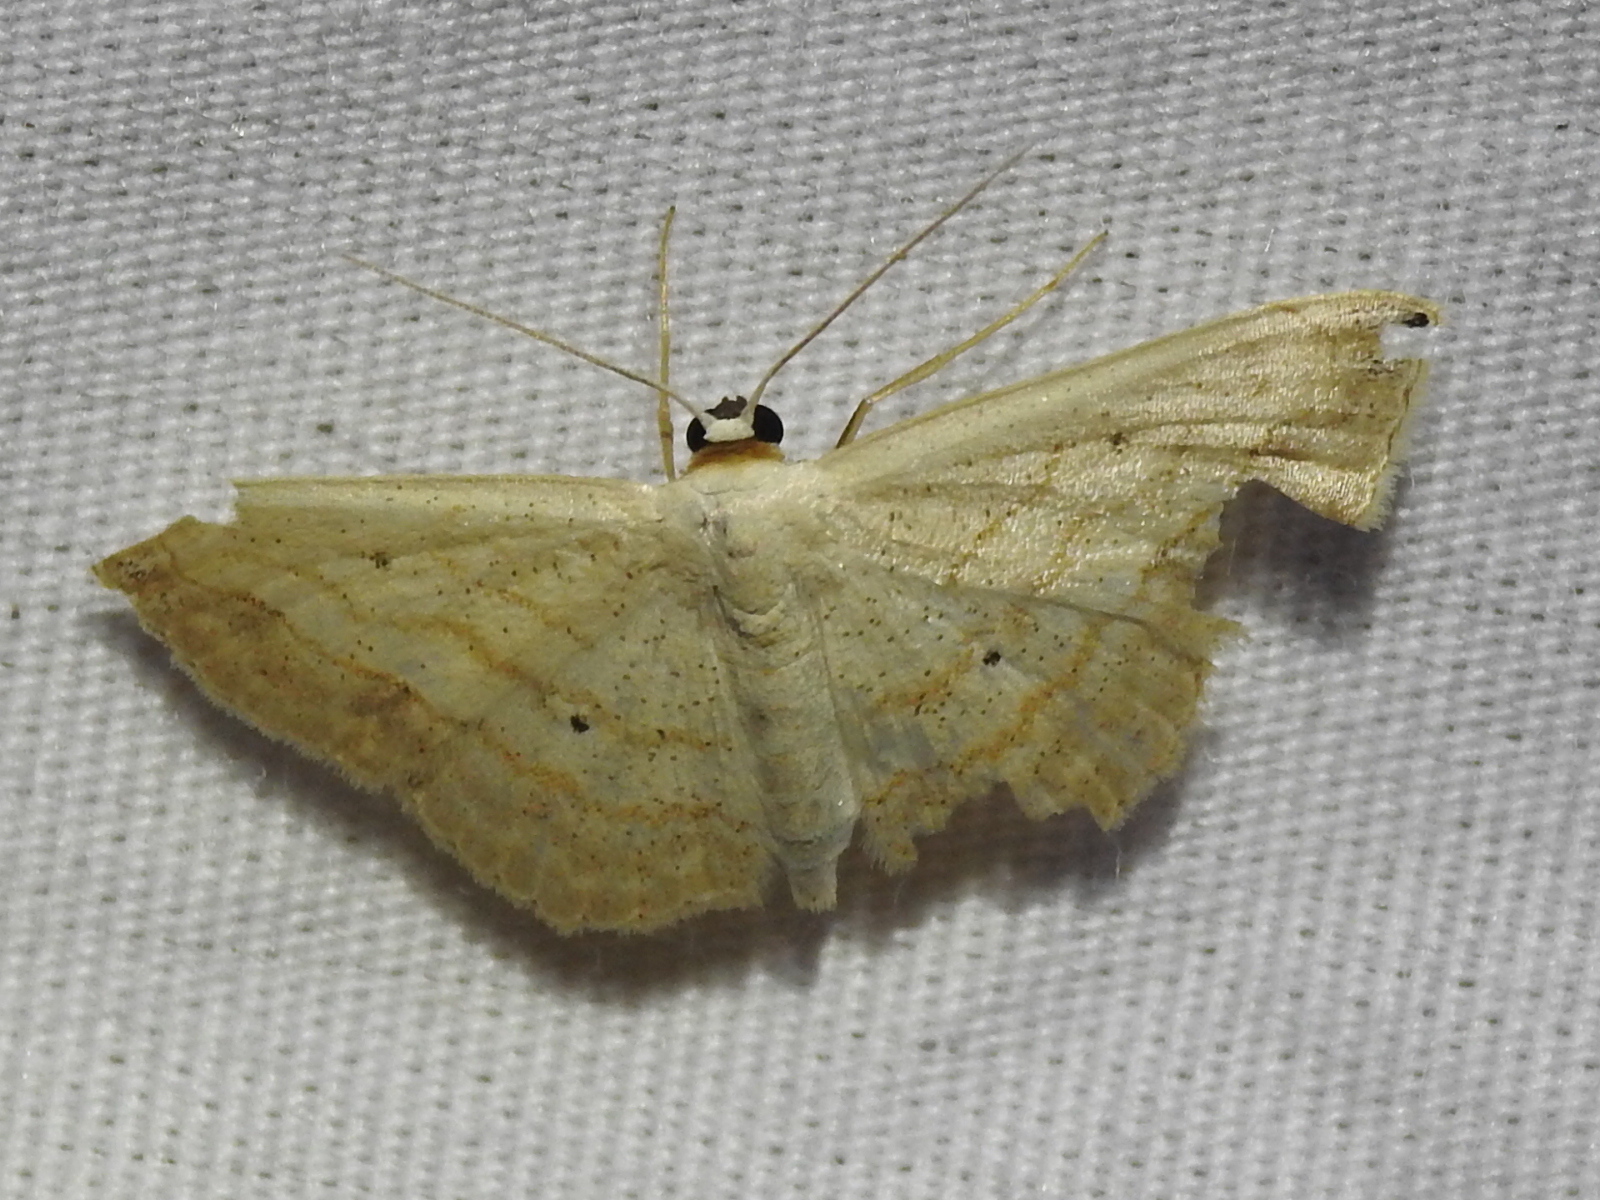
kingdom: Animalia
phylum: Arthropoda
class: Insecta
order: Lepidoptera
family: Geometridae
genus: Scopula
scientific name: Scopula umbilicata
